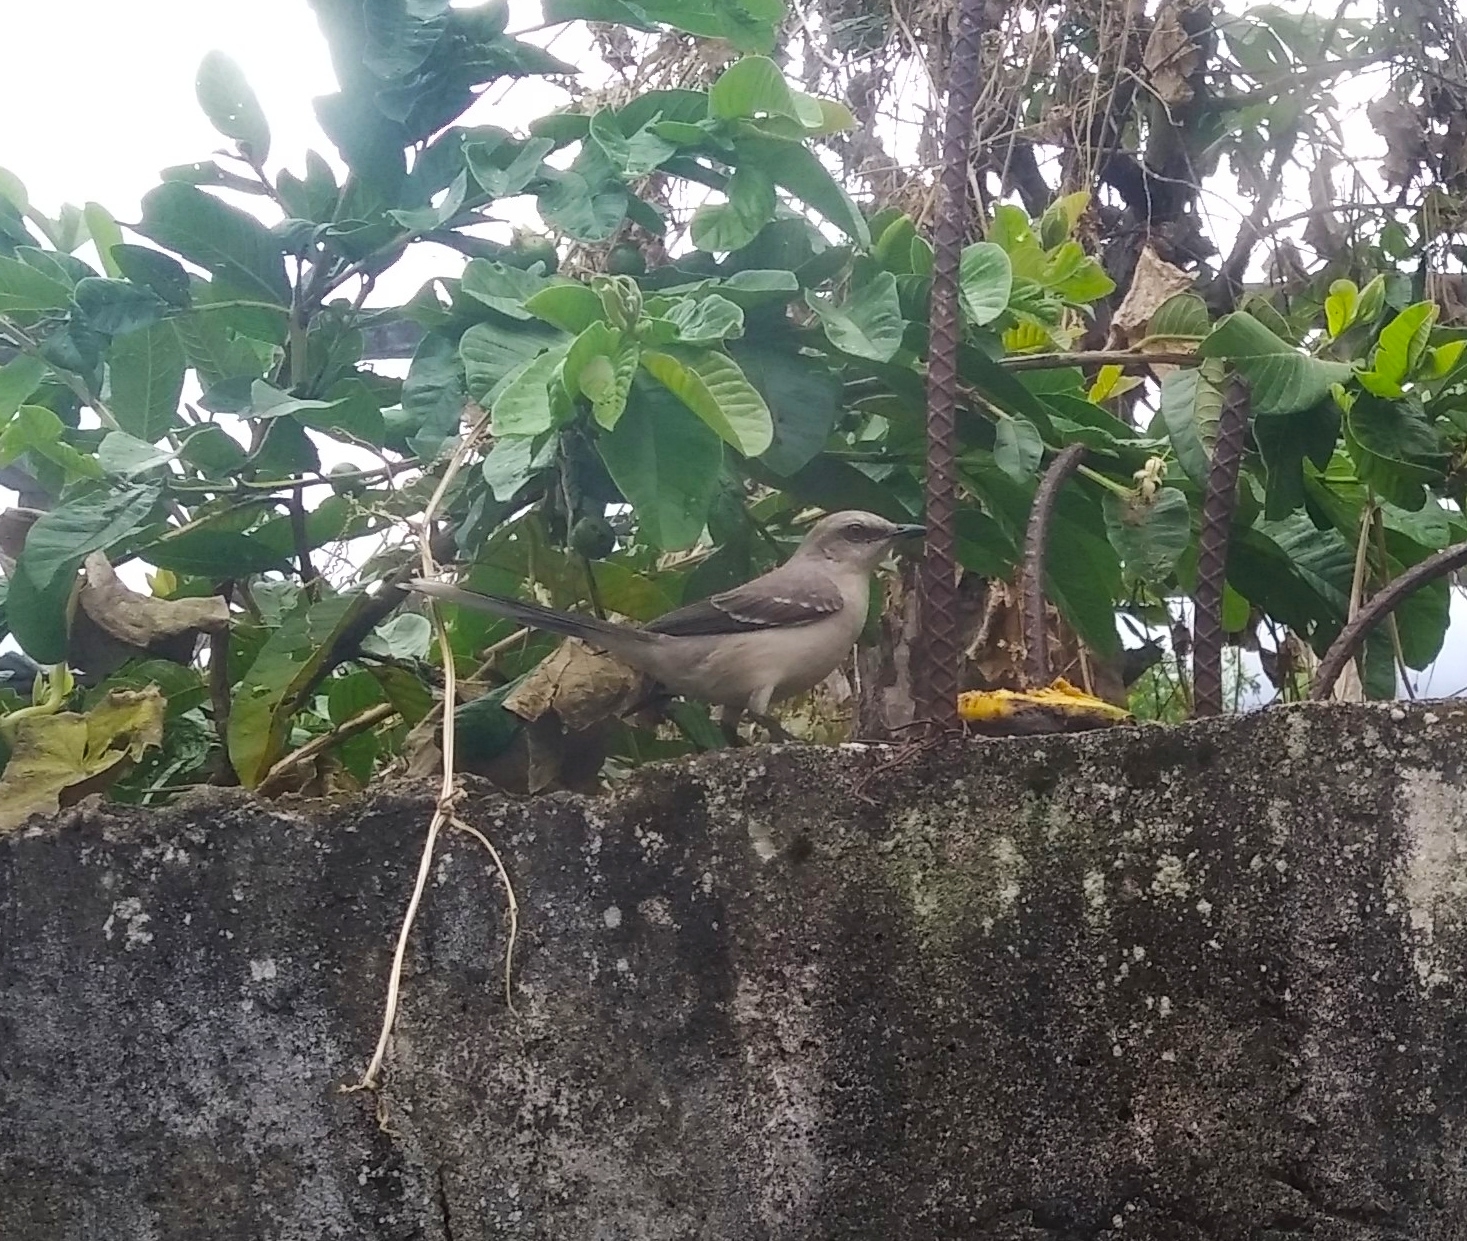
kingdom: Animalia
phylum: Chordata
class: Aves
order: Passeriformes
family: Mimidae
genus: Mimus
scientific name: Mimus gilvus
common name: Tropical mockingbird
